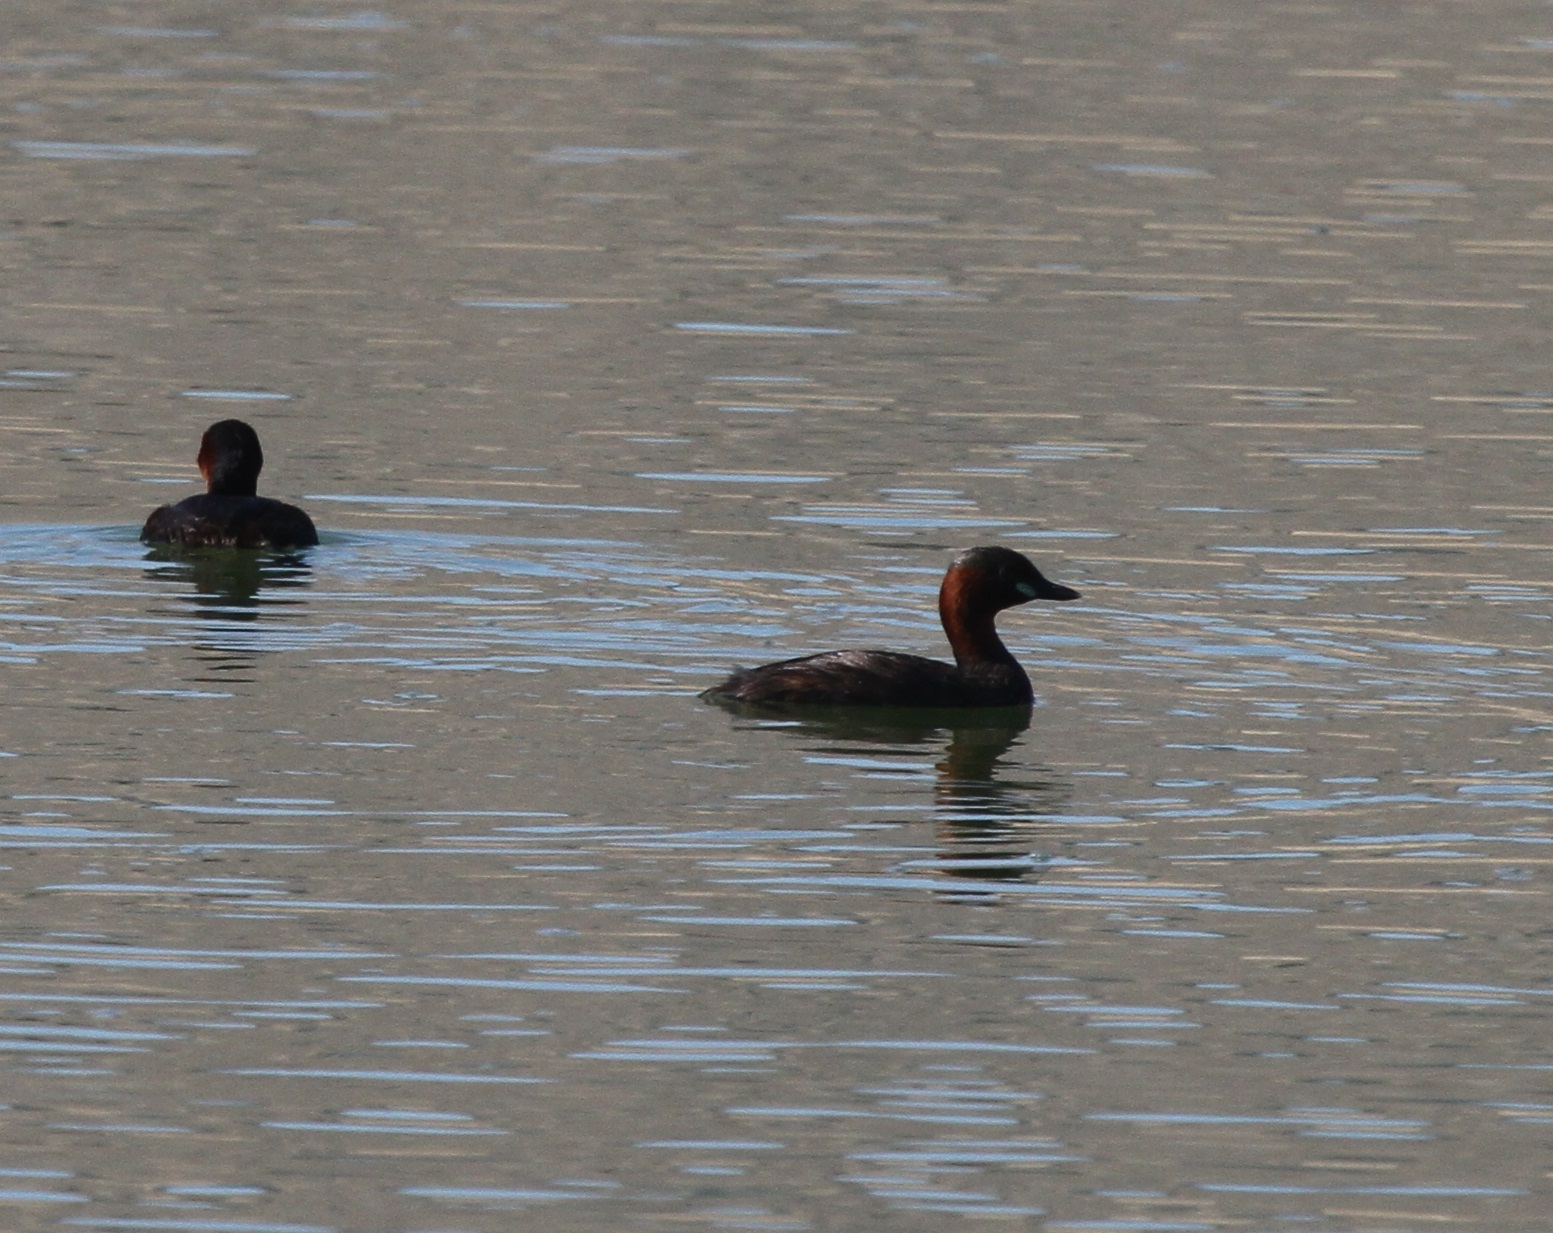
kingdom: Animalia
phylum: Chordata
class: Aves
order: Podicipediformes
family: Podicipedidae
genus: Tachybaptus
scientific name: Tachybaptus ruficollis
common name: Little grebe
